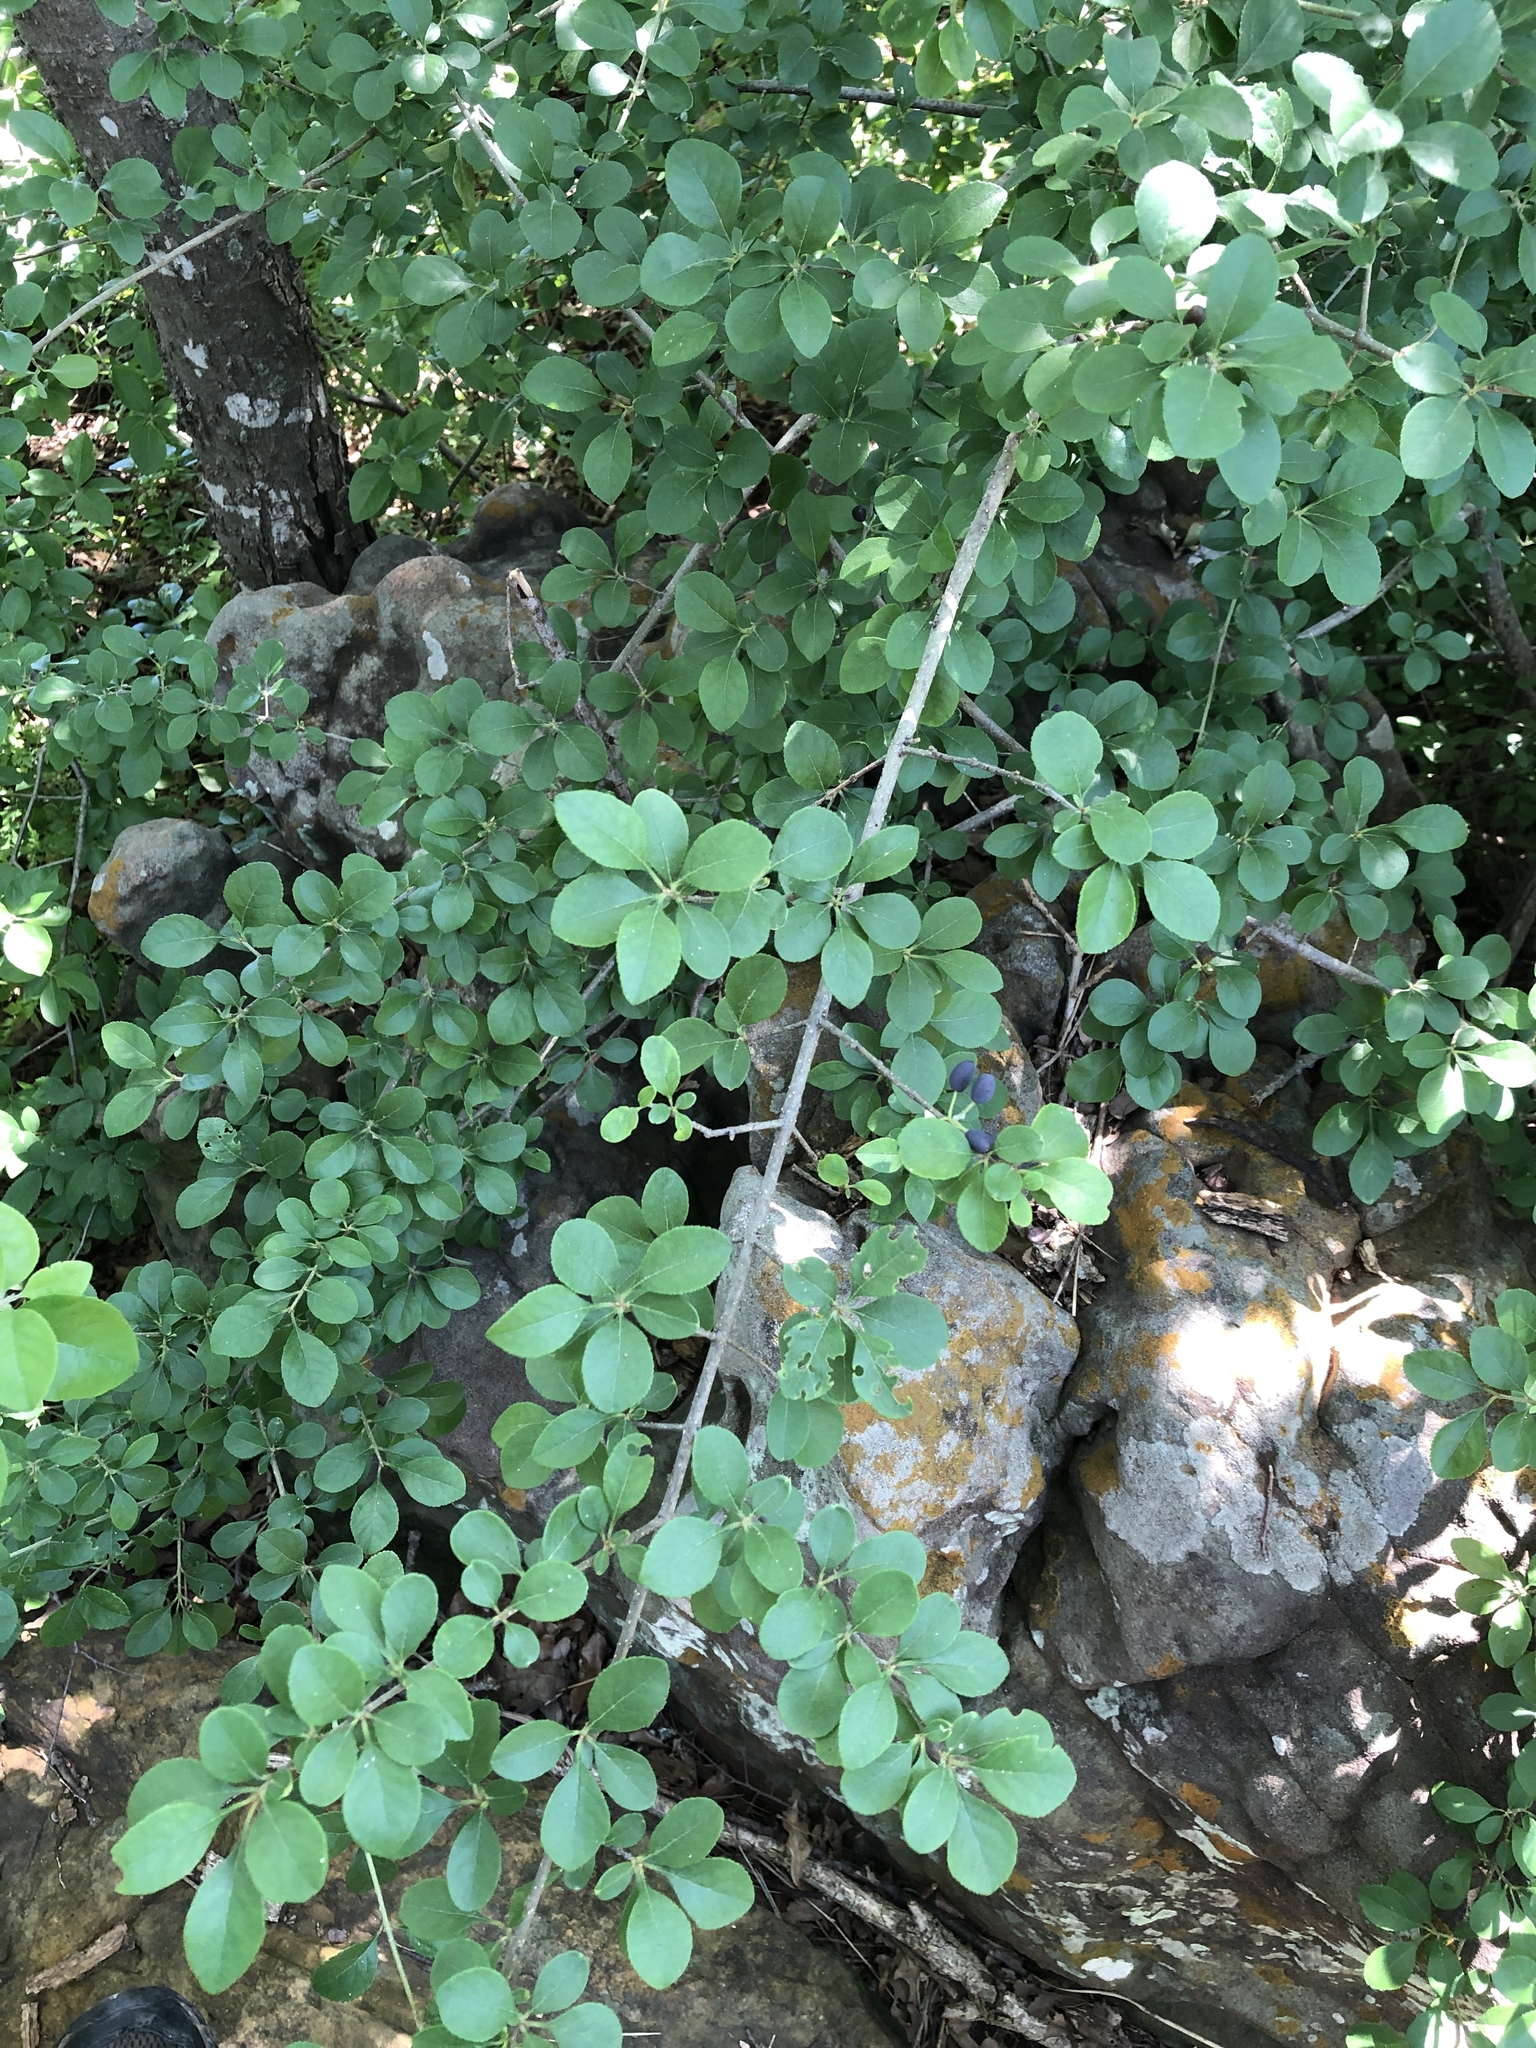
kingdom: Plantae
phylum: Tracheophyta
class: Magnoliopsida
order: Lamiales
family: Oleaceae
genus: Forestiera
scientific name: Forestiera pubescens
